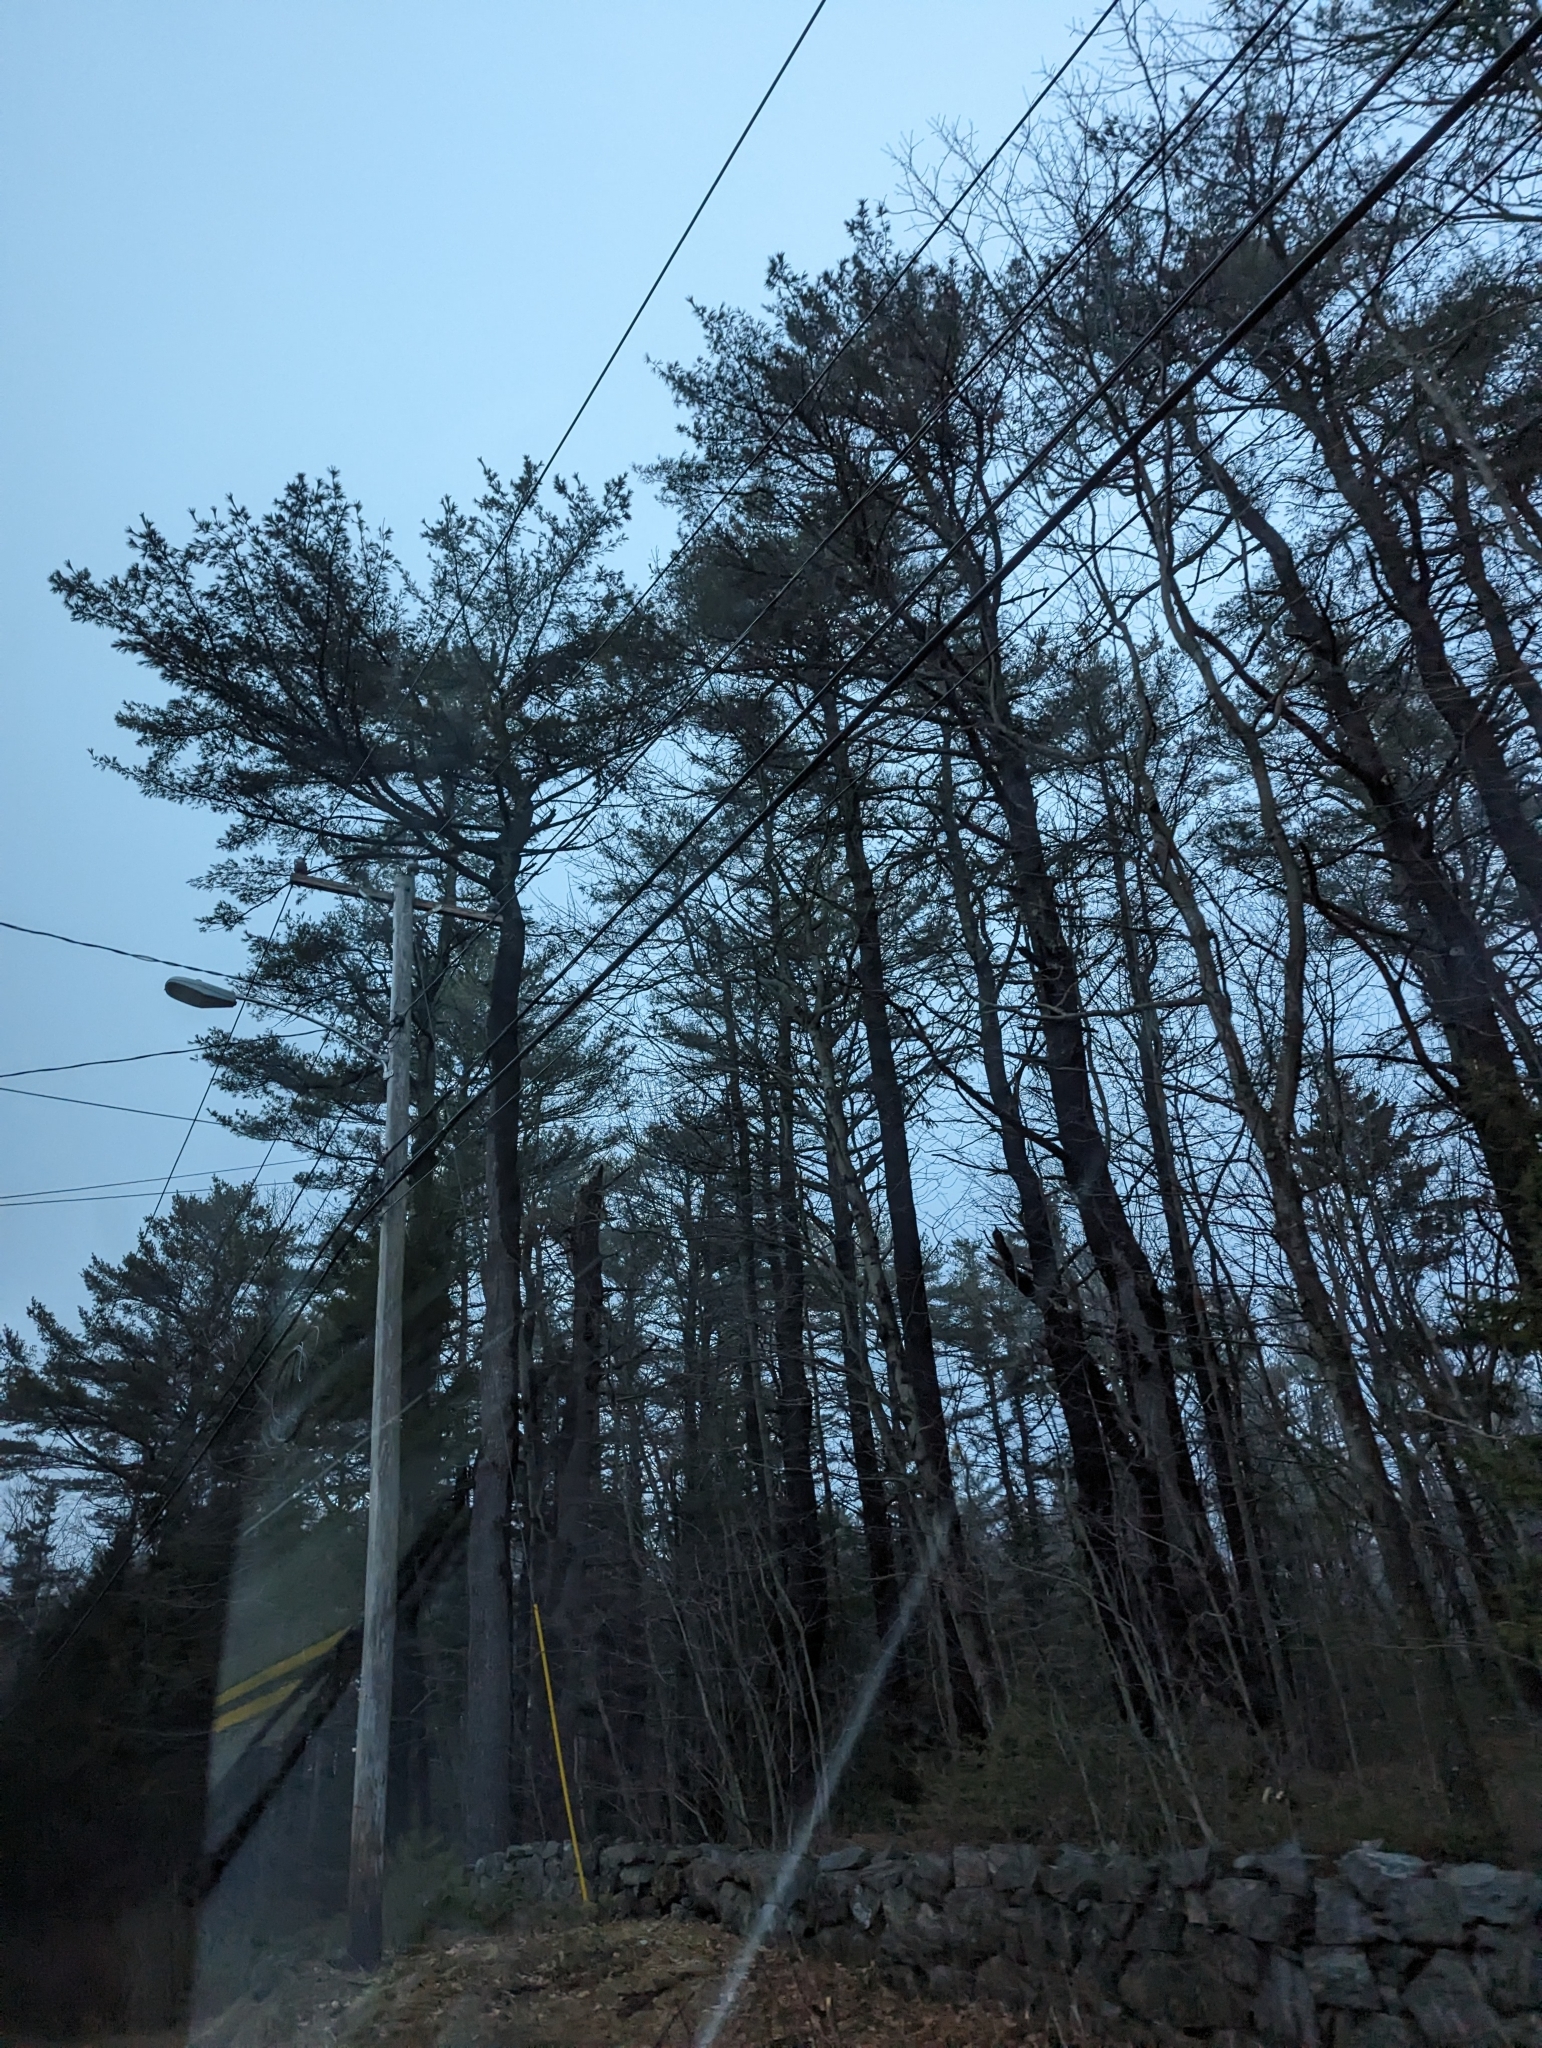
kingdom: Plantae
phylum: Tracheophyta
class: Pinopsida
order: Pinales
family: Pinaceae
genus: Pinus
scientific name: Pinus strobus
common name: Weymouth pine
